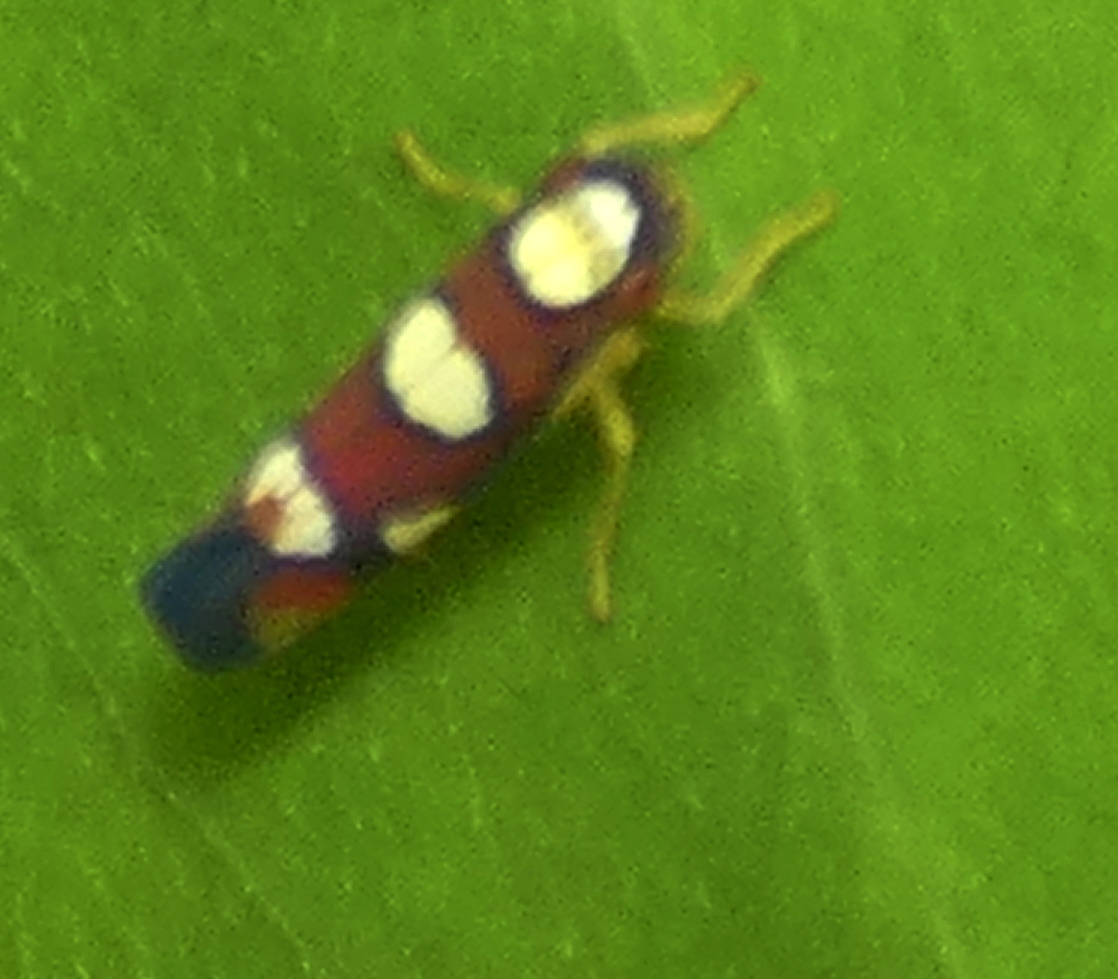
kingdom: Animalia
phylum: Arthropoda
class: Insecta
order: Hemiptera
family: Cicadellidae
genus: Erythrogonia
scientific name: Erythrogonia sexguttata
